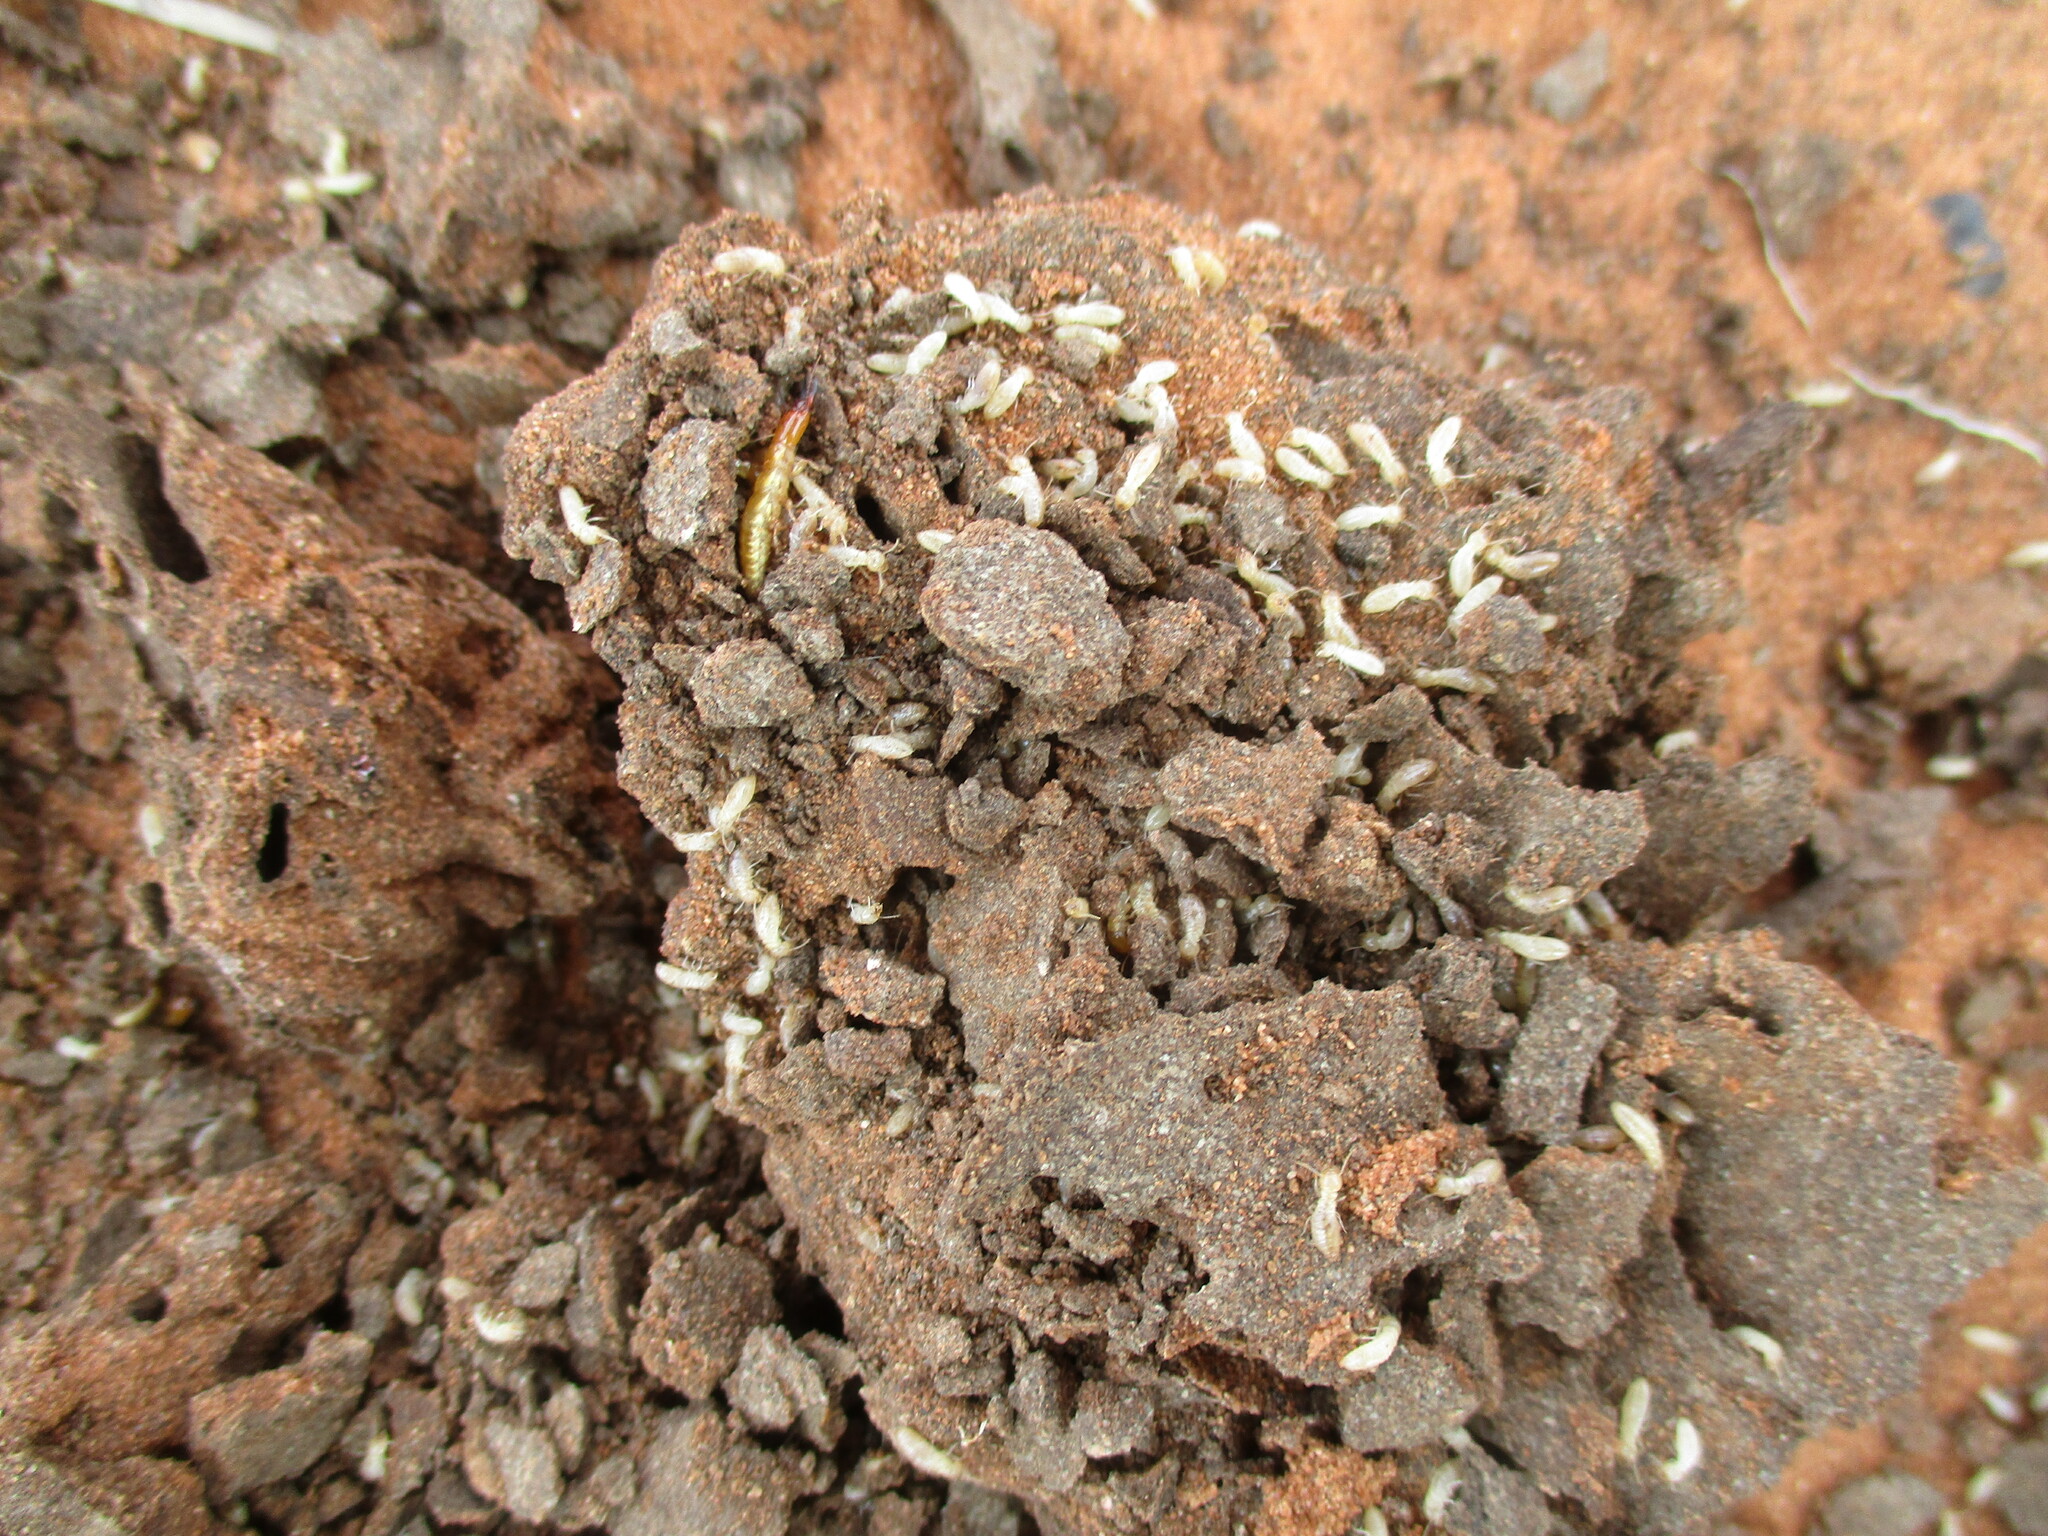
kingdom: Animalia
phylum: Arthropoda
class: Insecta
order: Blattodea
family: Rhinotermitidae
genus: Psammotermes
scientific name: Psammotermes allocerus
